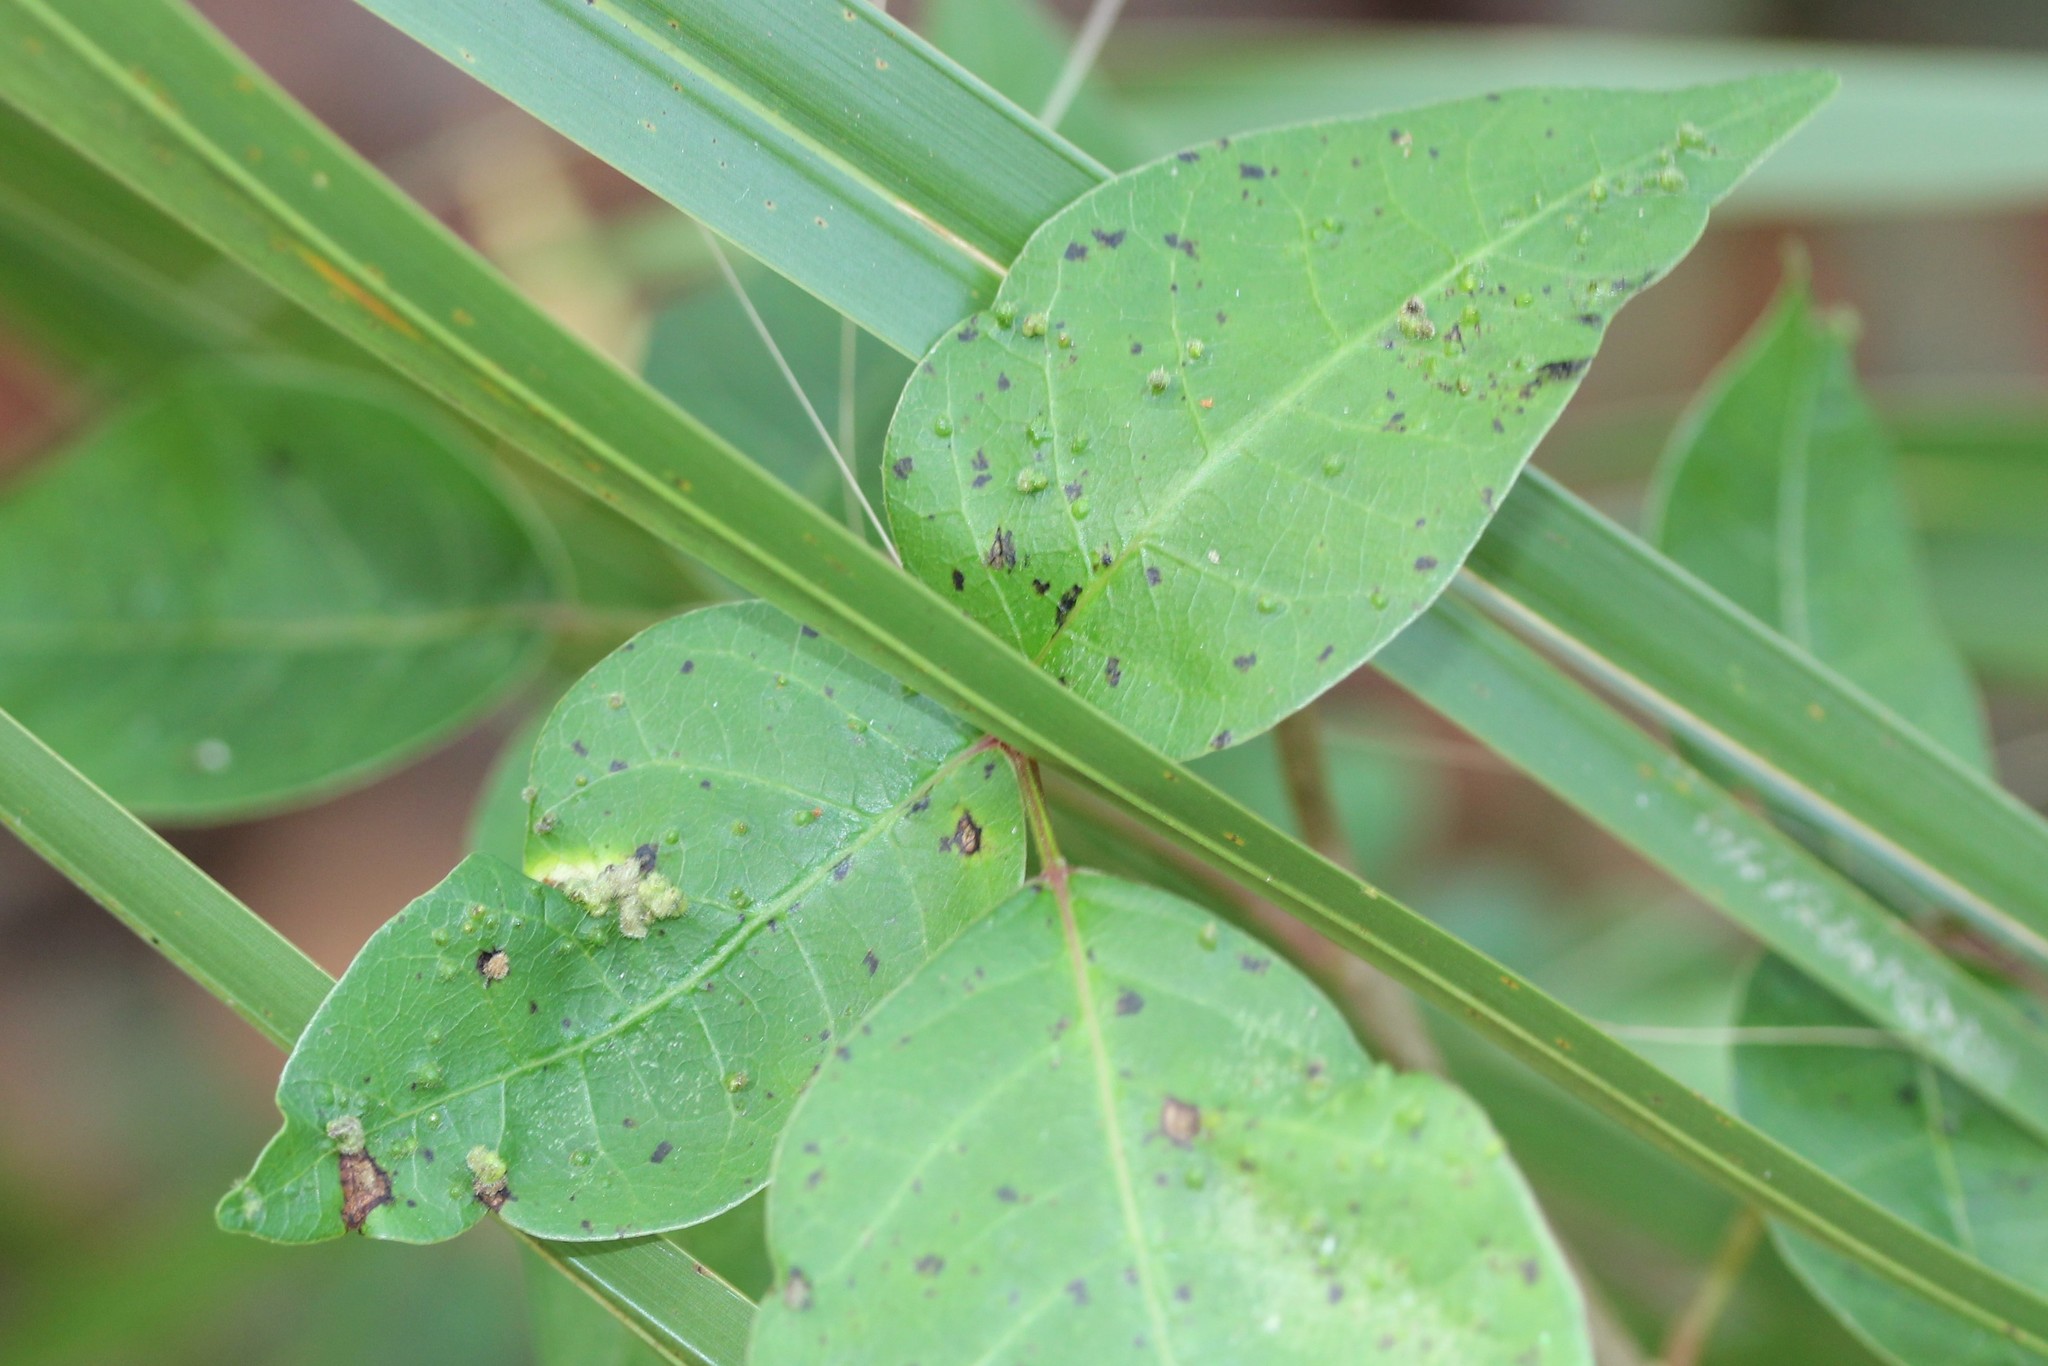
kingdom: Animalia
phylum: Arthropoda
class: Arachnida
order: Trombidiformes
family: Eriophyidae
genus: Aculops
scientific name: Aculops
